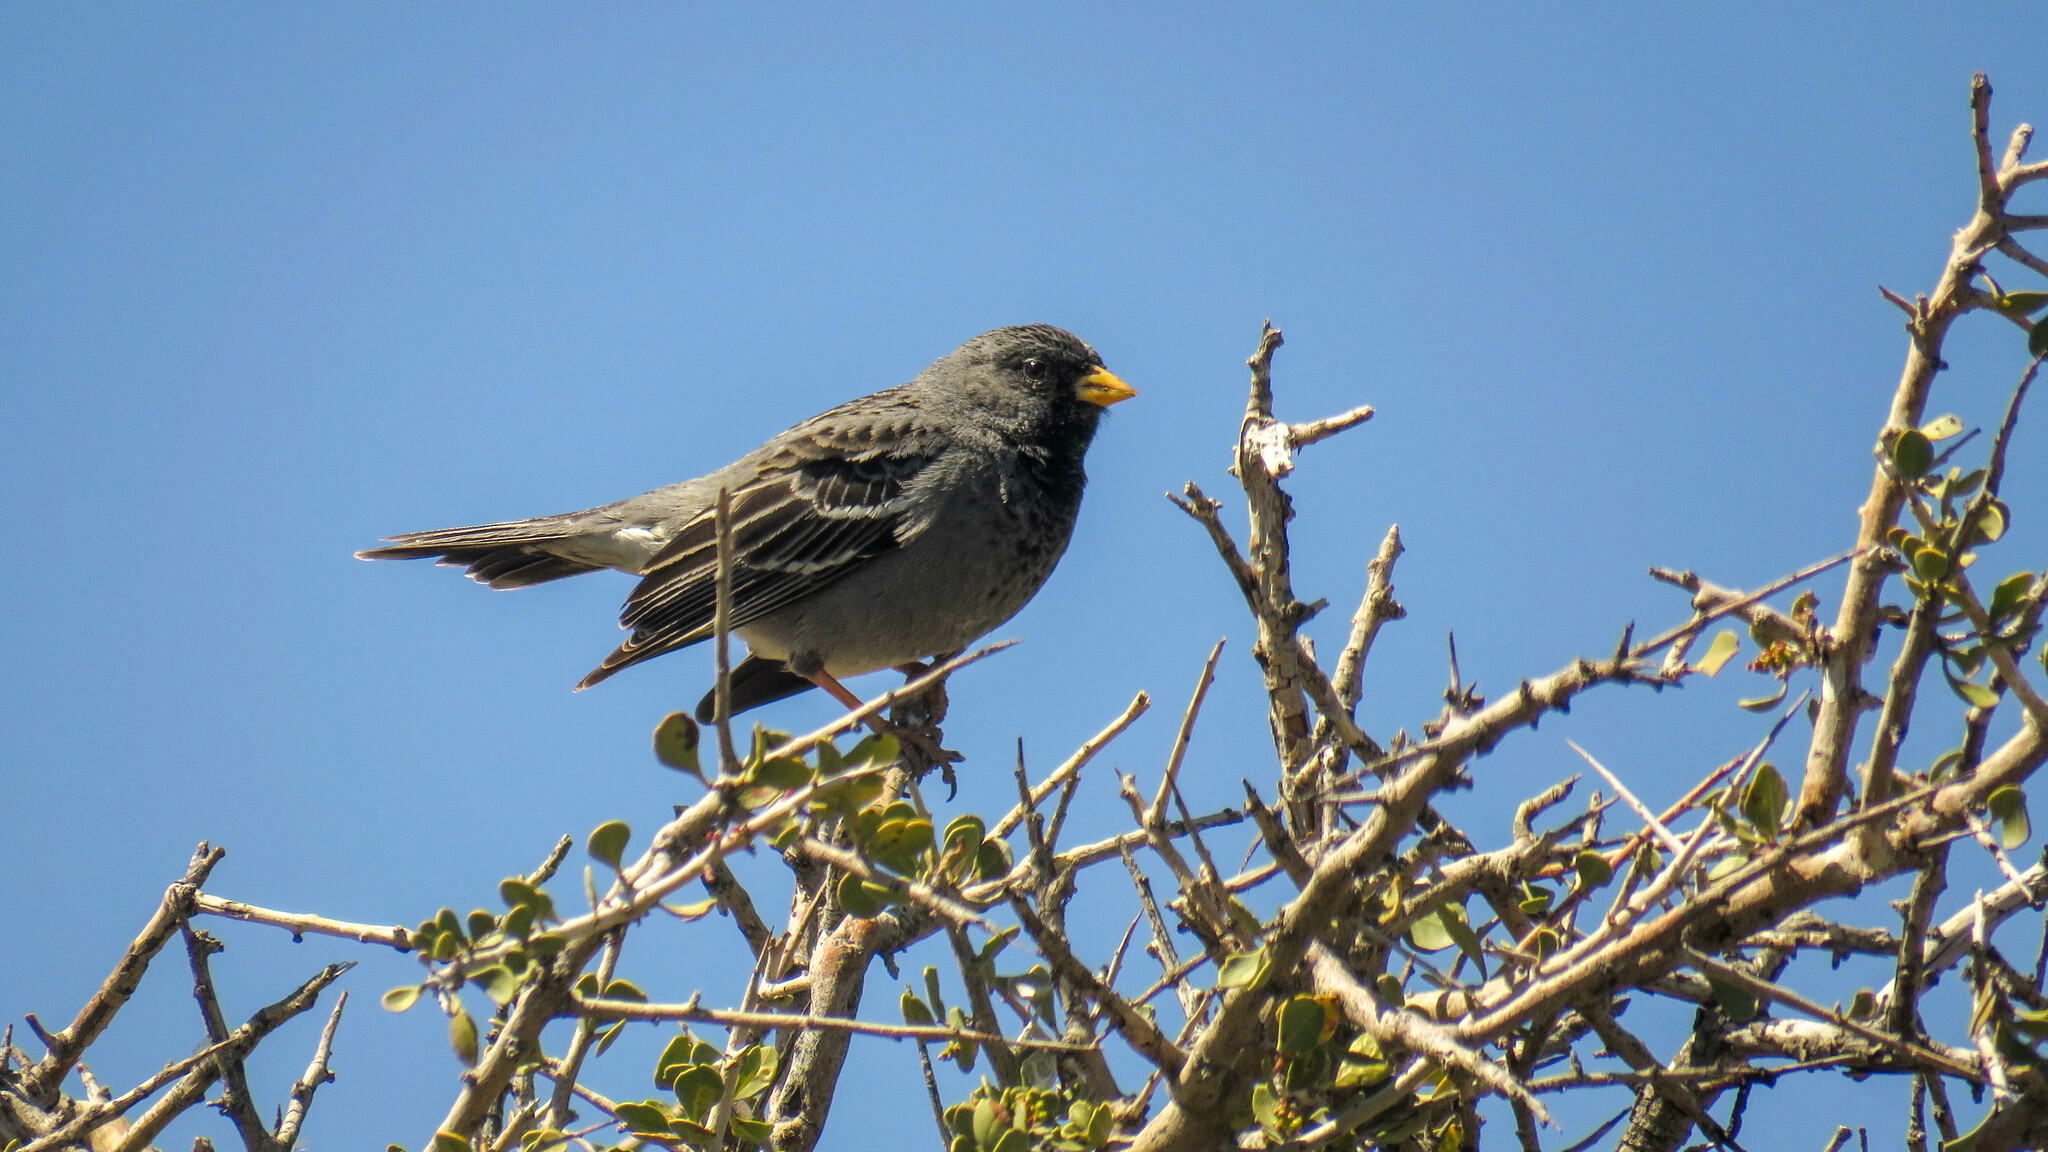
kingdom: Animalia
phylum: Chordata
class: Aves
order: Passeriformes
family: Thraupidae
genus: Rhopospina
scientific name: Rhopospina fruticeti
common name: Mourning sierra finch
